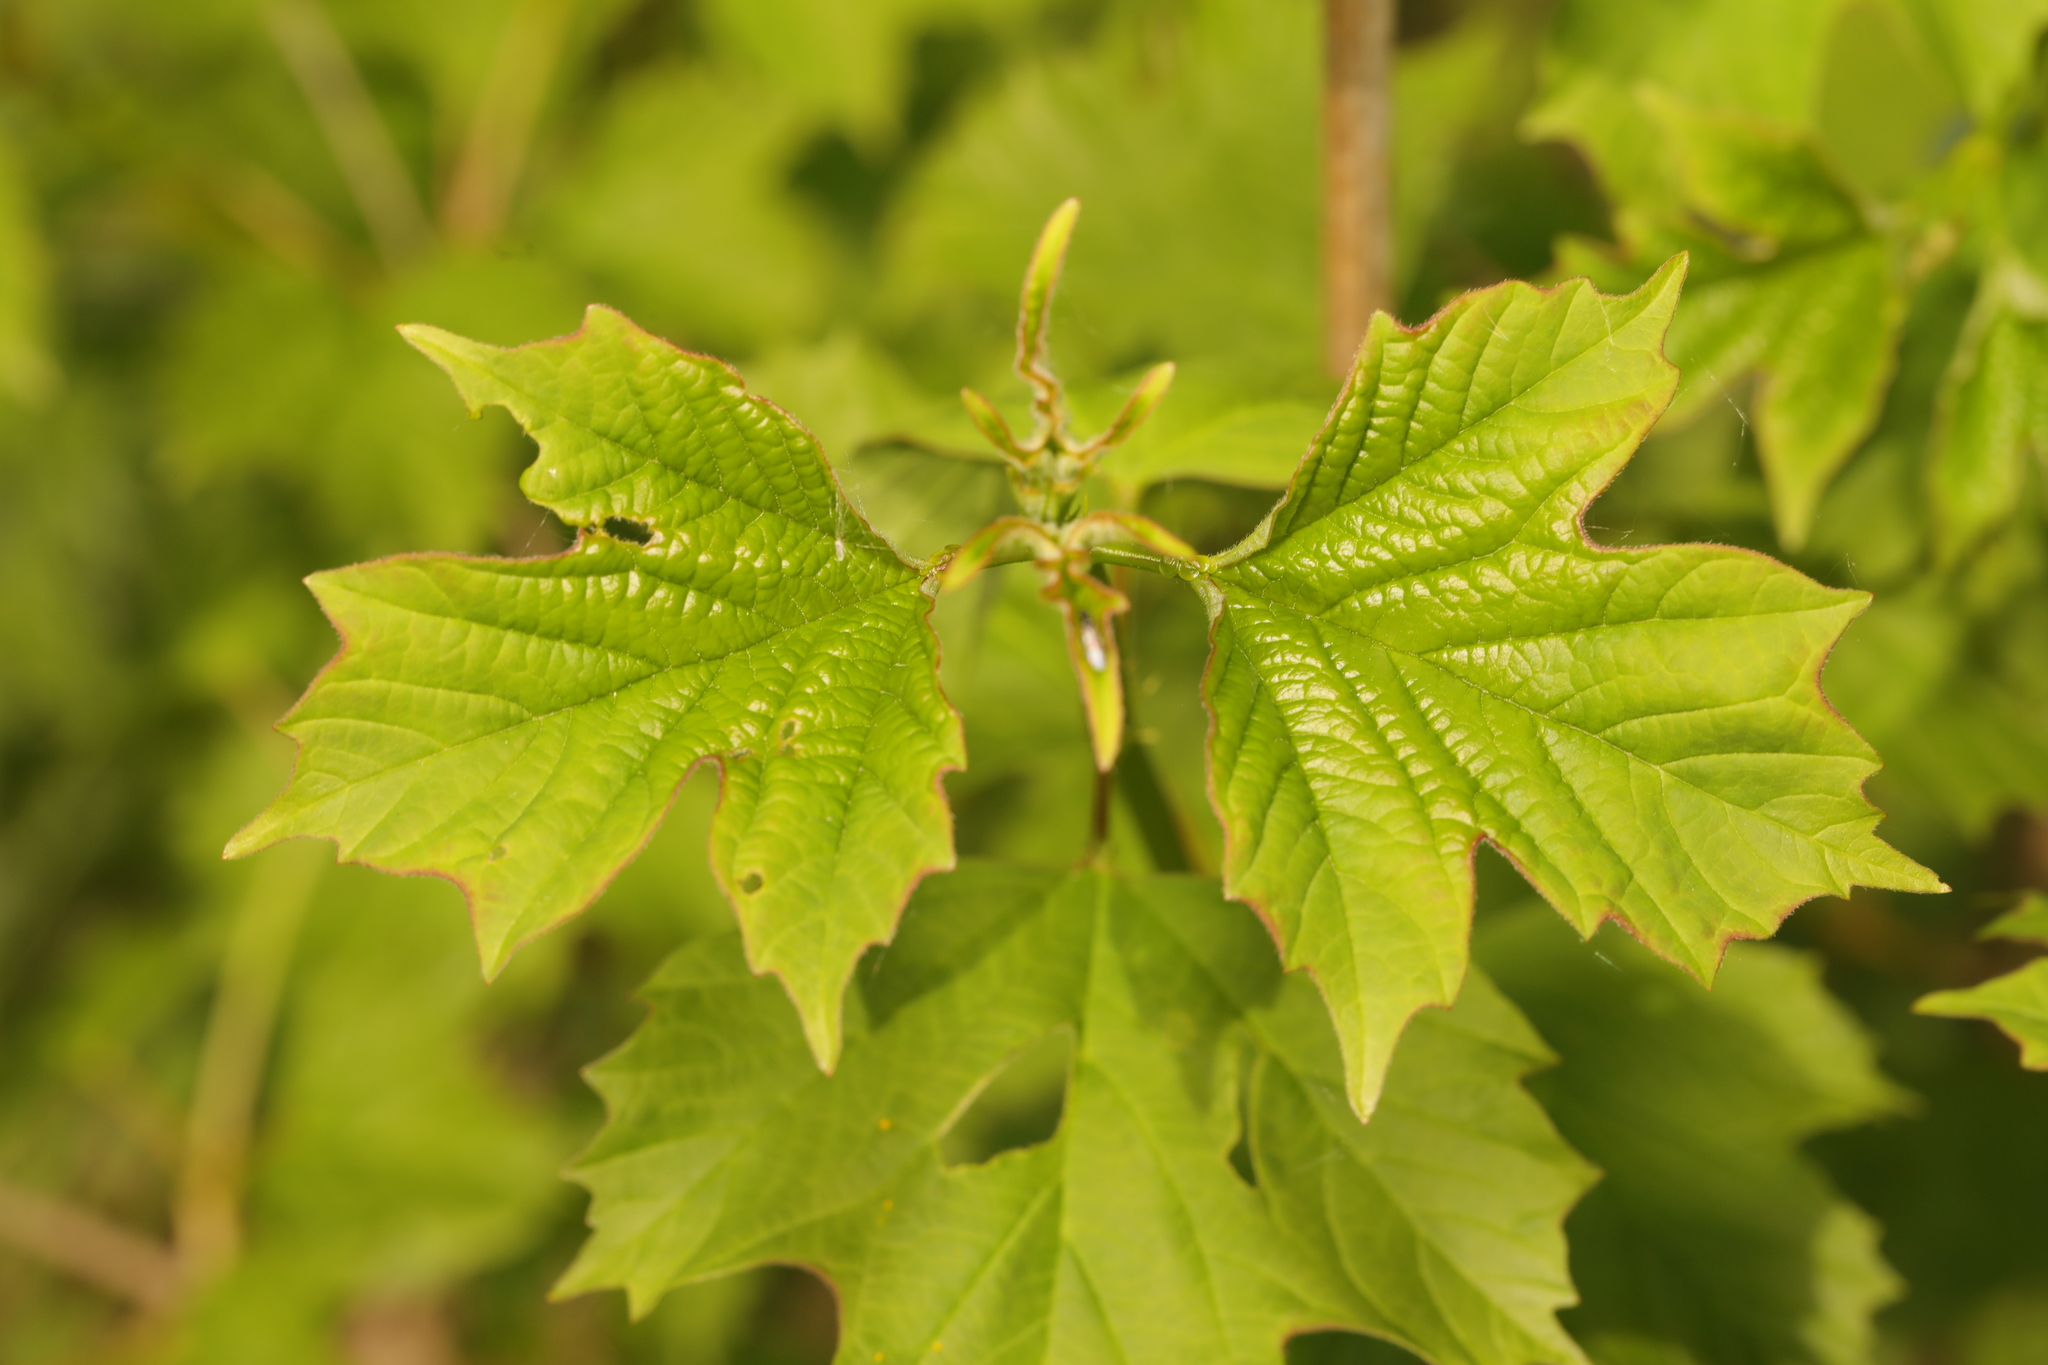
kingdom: Plantae
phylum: Tracheophyta
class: Magnoliopsida
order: Dipsacales
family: Viburnaceae
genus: Viburnum
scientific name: Viburnum opulus
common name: Guelder-rose
